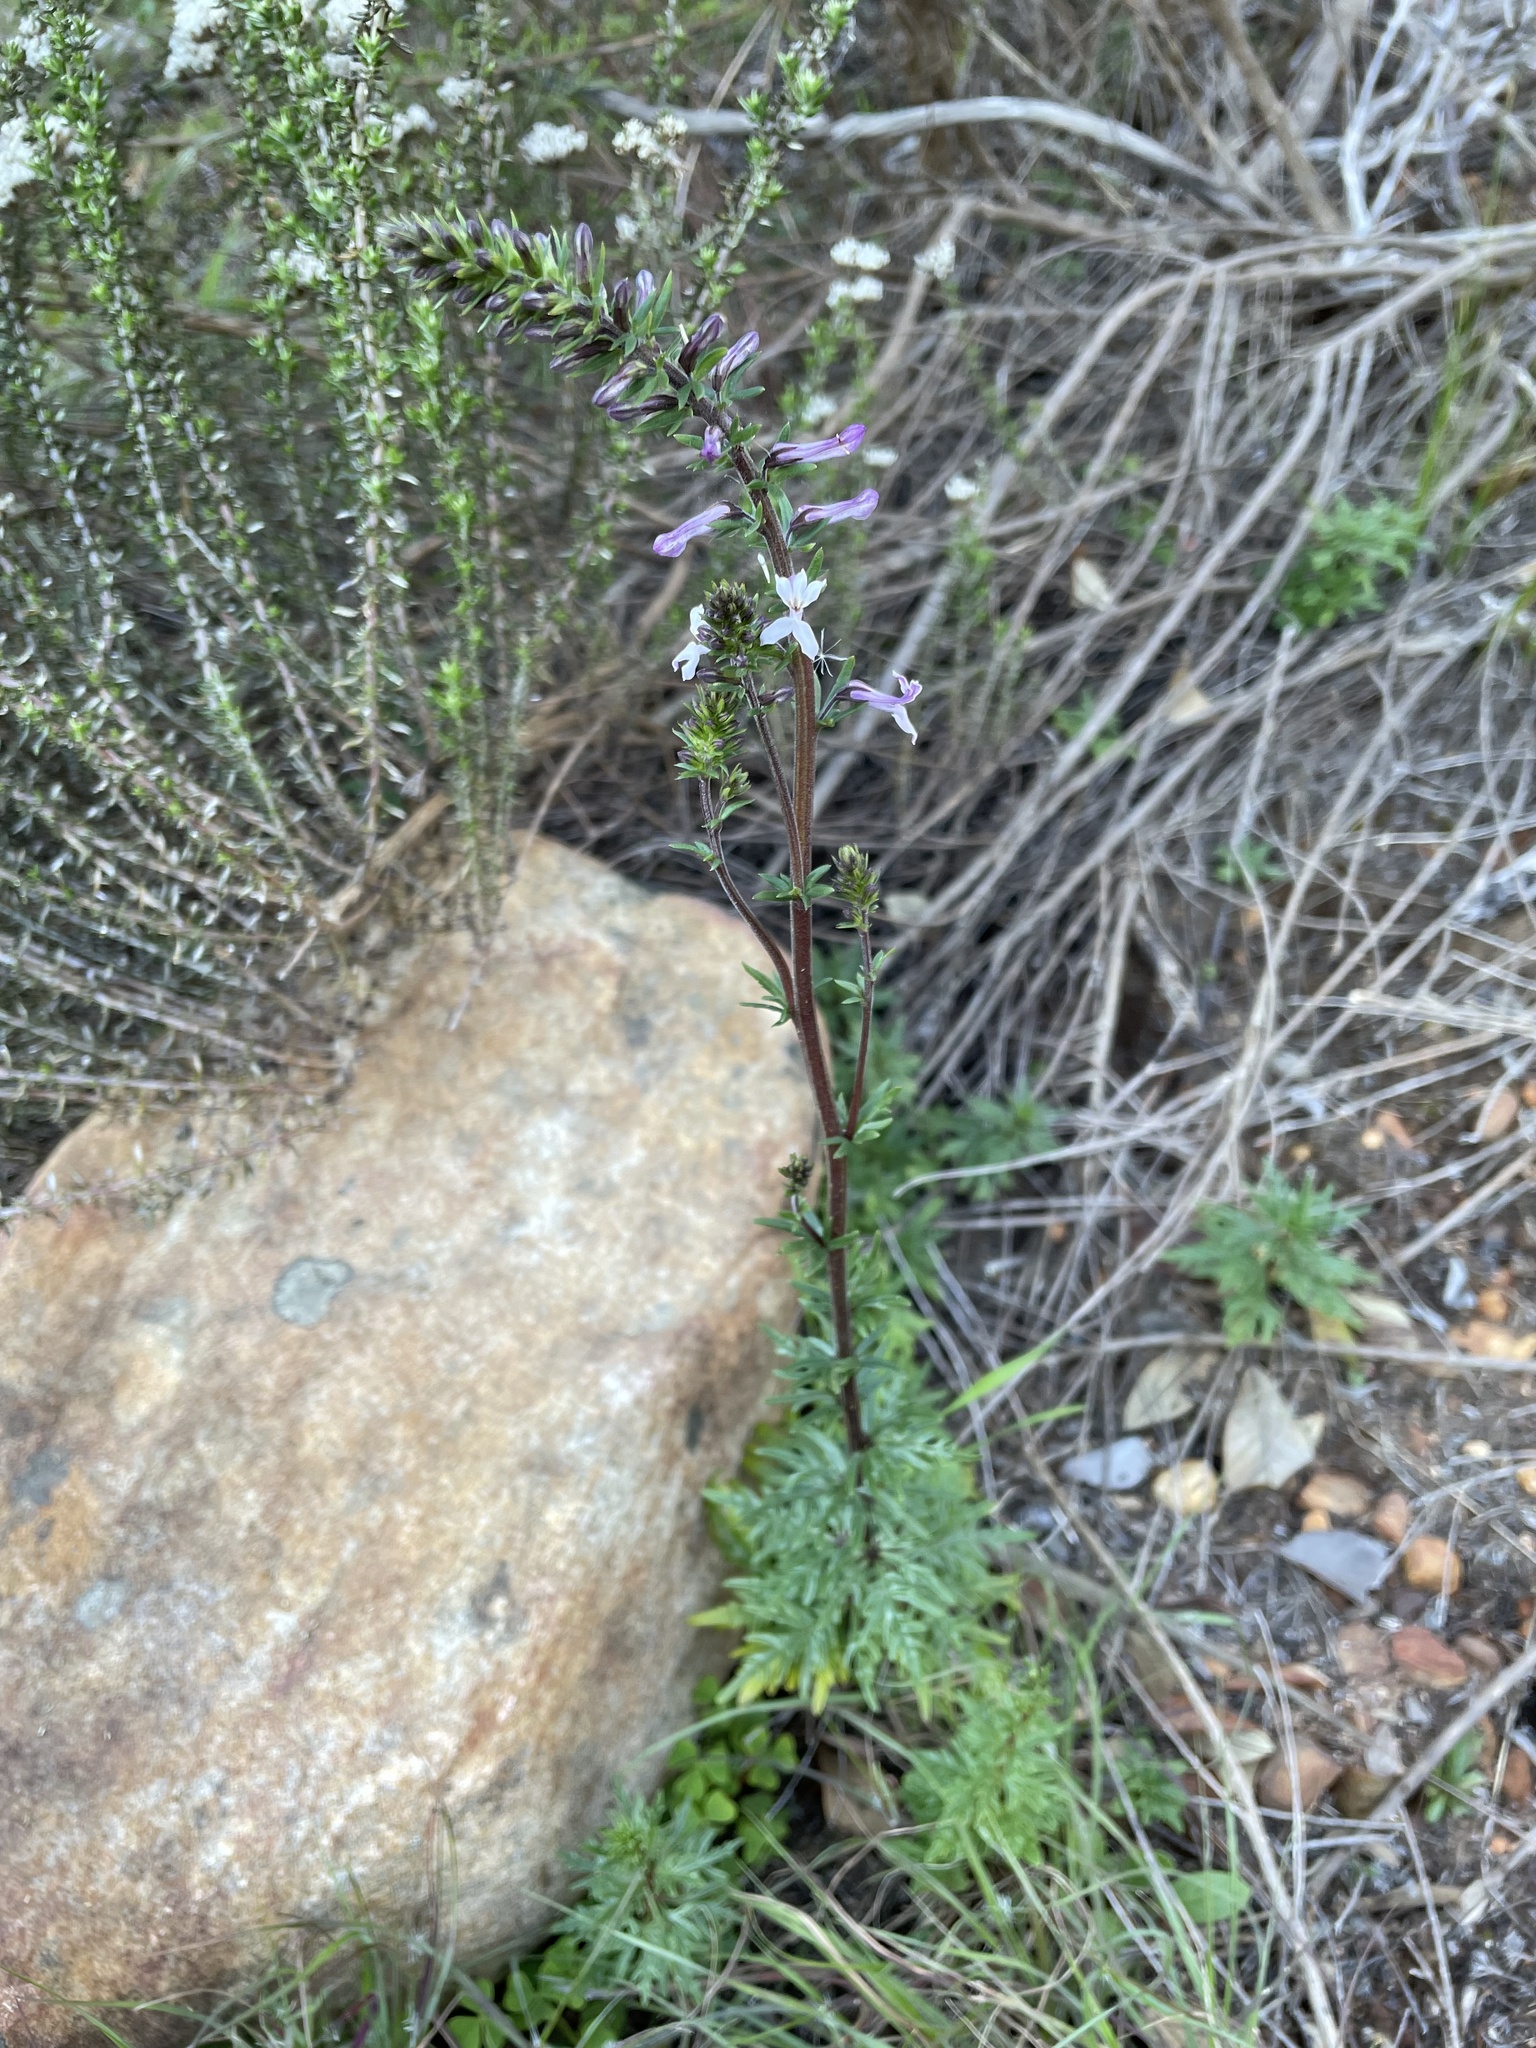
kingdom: Plantae
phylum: Tracheophyta
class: Magnoliopsida
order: Asterales
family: Campanulaceae
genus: Cyphia
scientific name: Cyphia bulbosa
